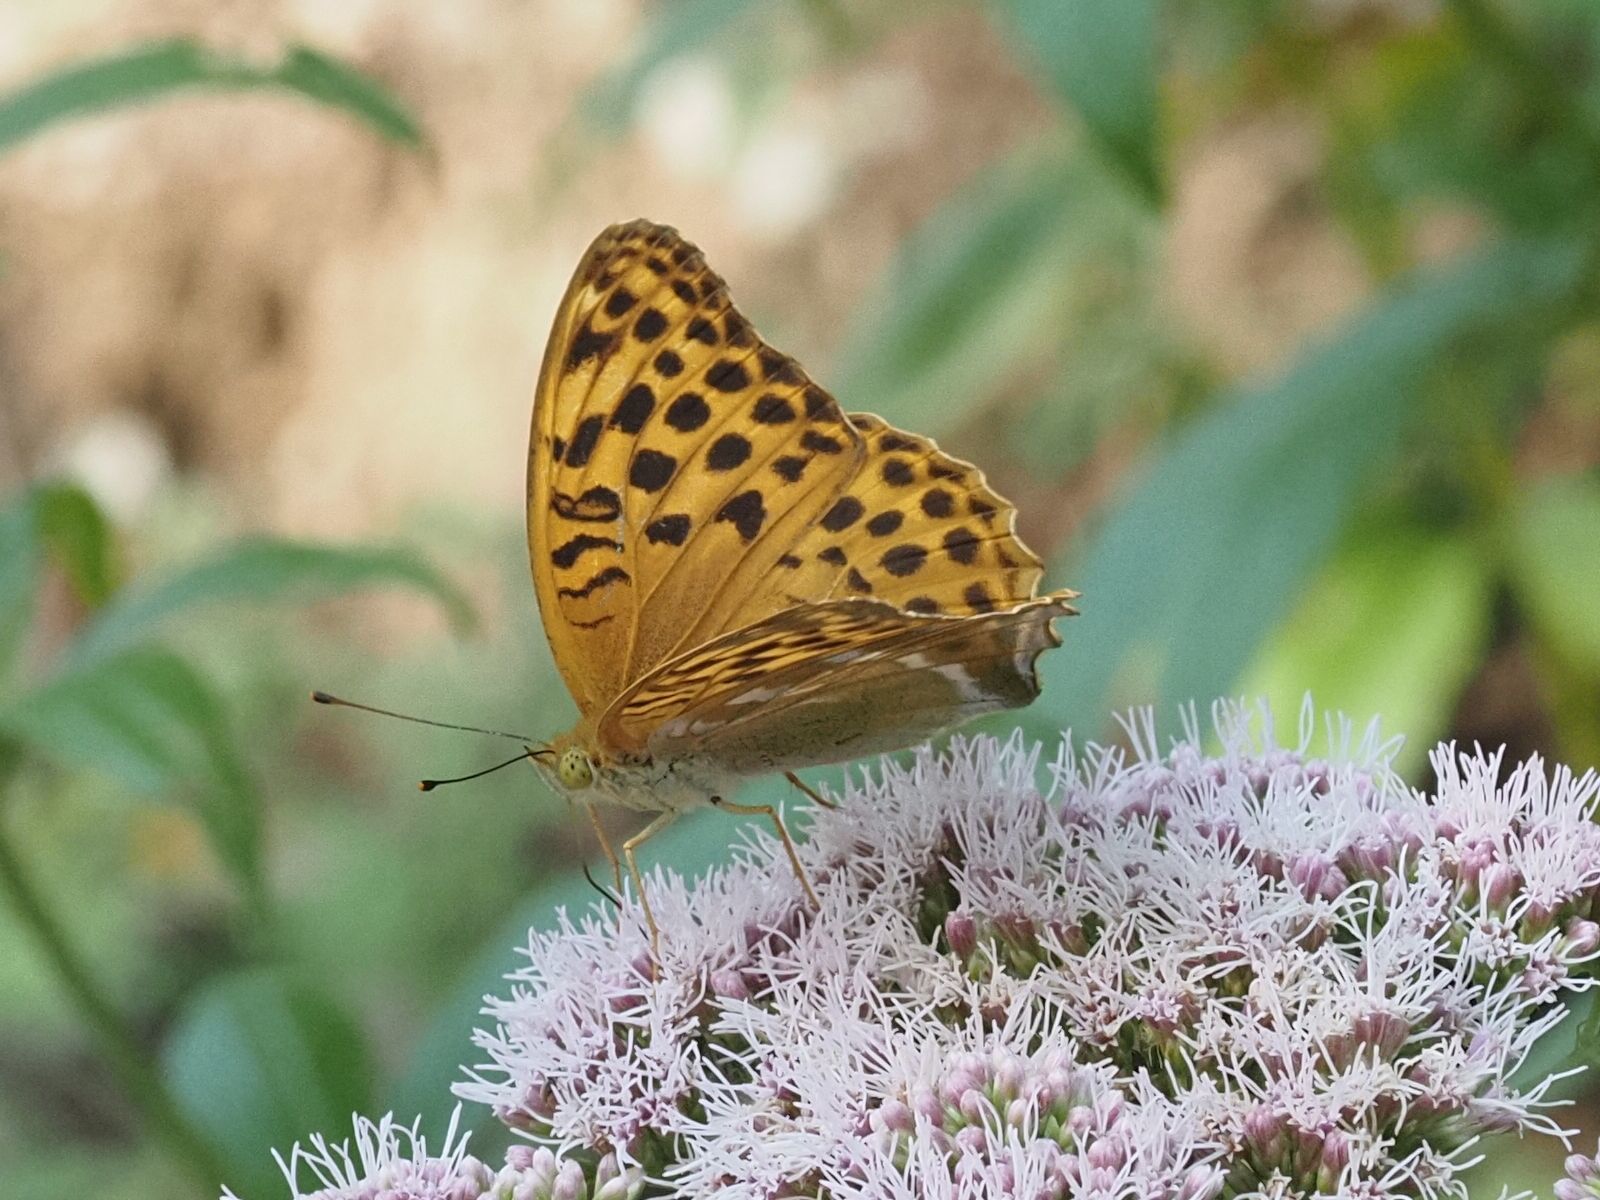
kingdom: Animalia
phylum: Arthropoda
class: Insecta
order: Lepidoptera
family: Nymphalidae
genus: Argynnis
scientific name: Argynnis paphia
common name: Silver-washed fritillary
